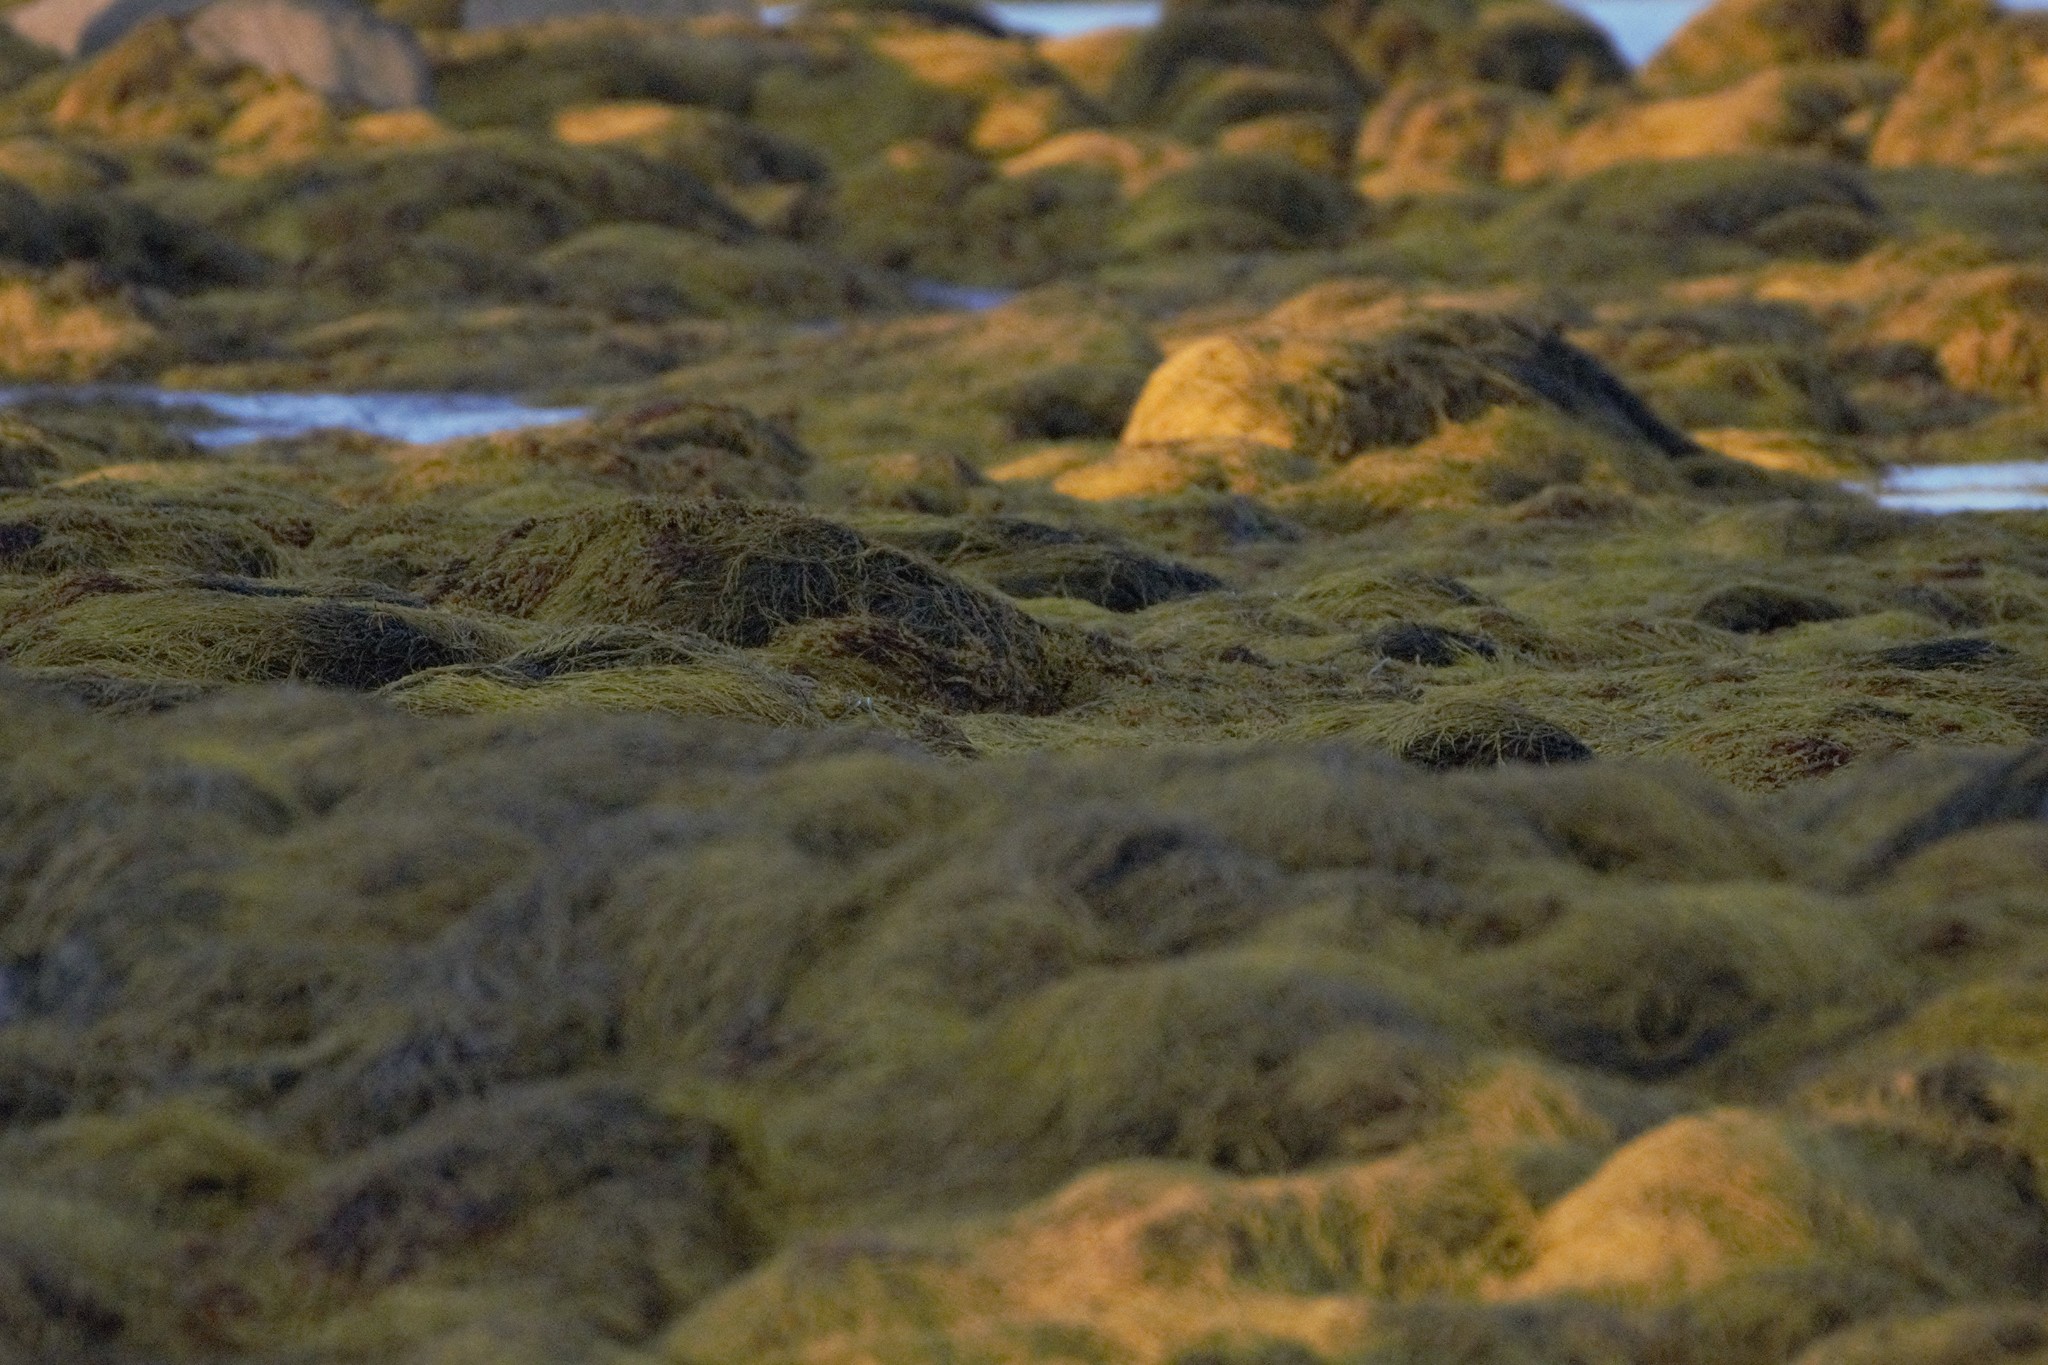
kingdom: Chromista
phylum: Ochrophyta
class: Phaeophyceae
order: Fucales
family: Fucaceae
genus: Ascophyllum
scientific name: Ascophyllum nodosum
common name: Knotted wrack
